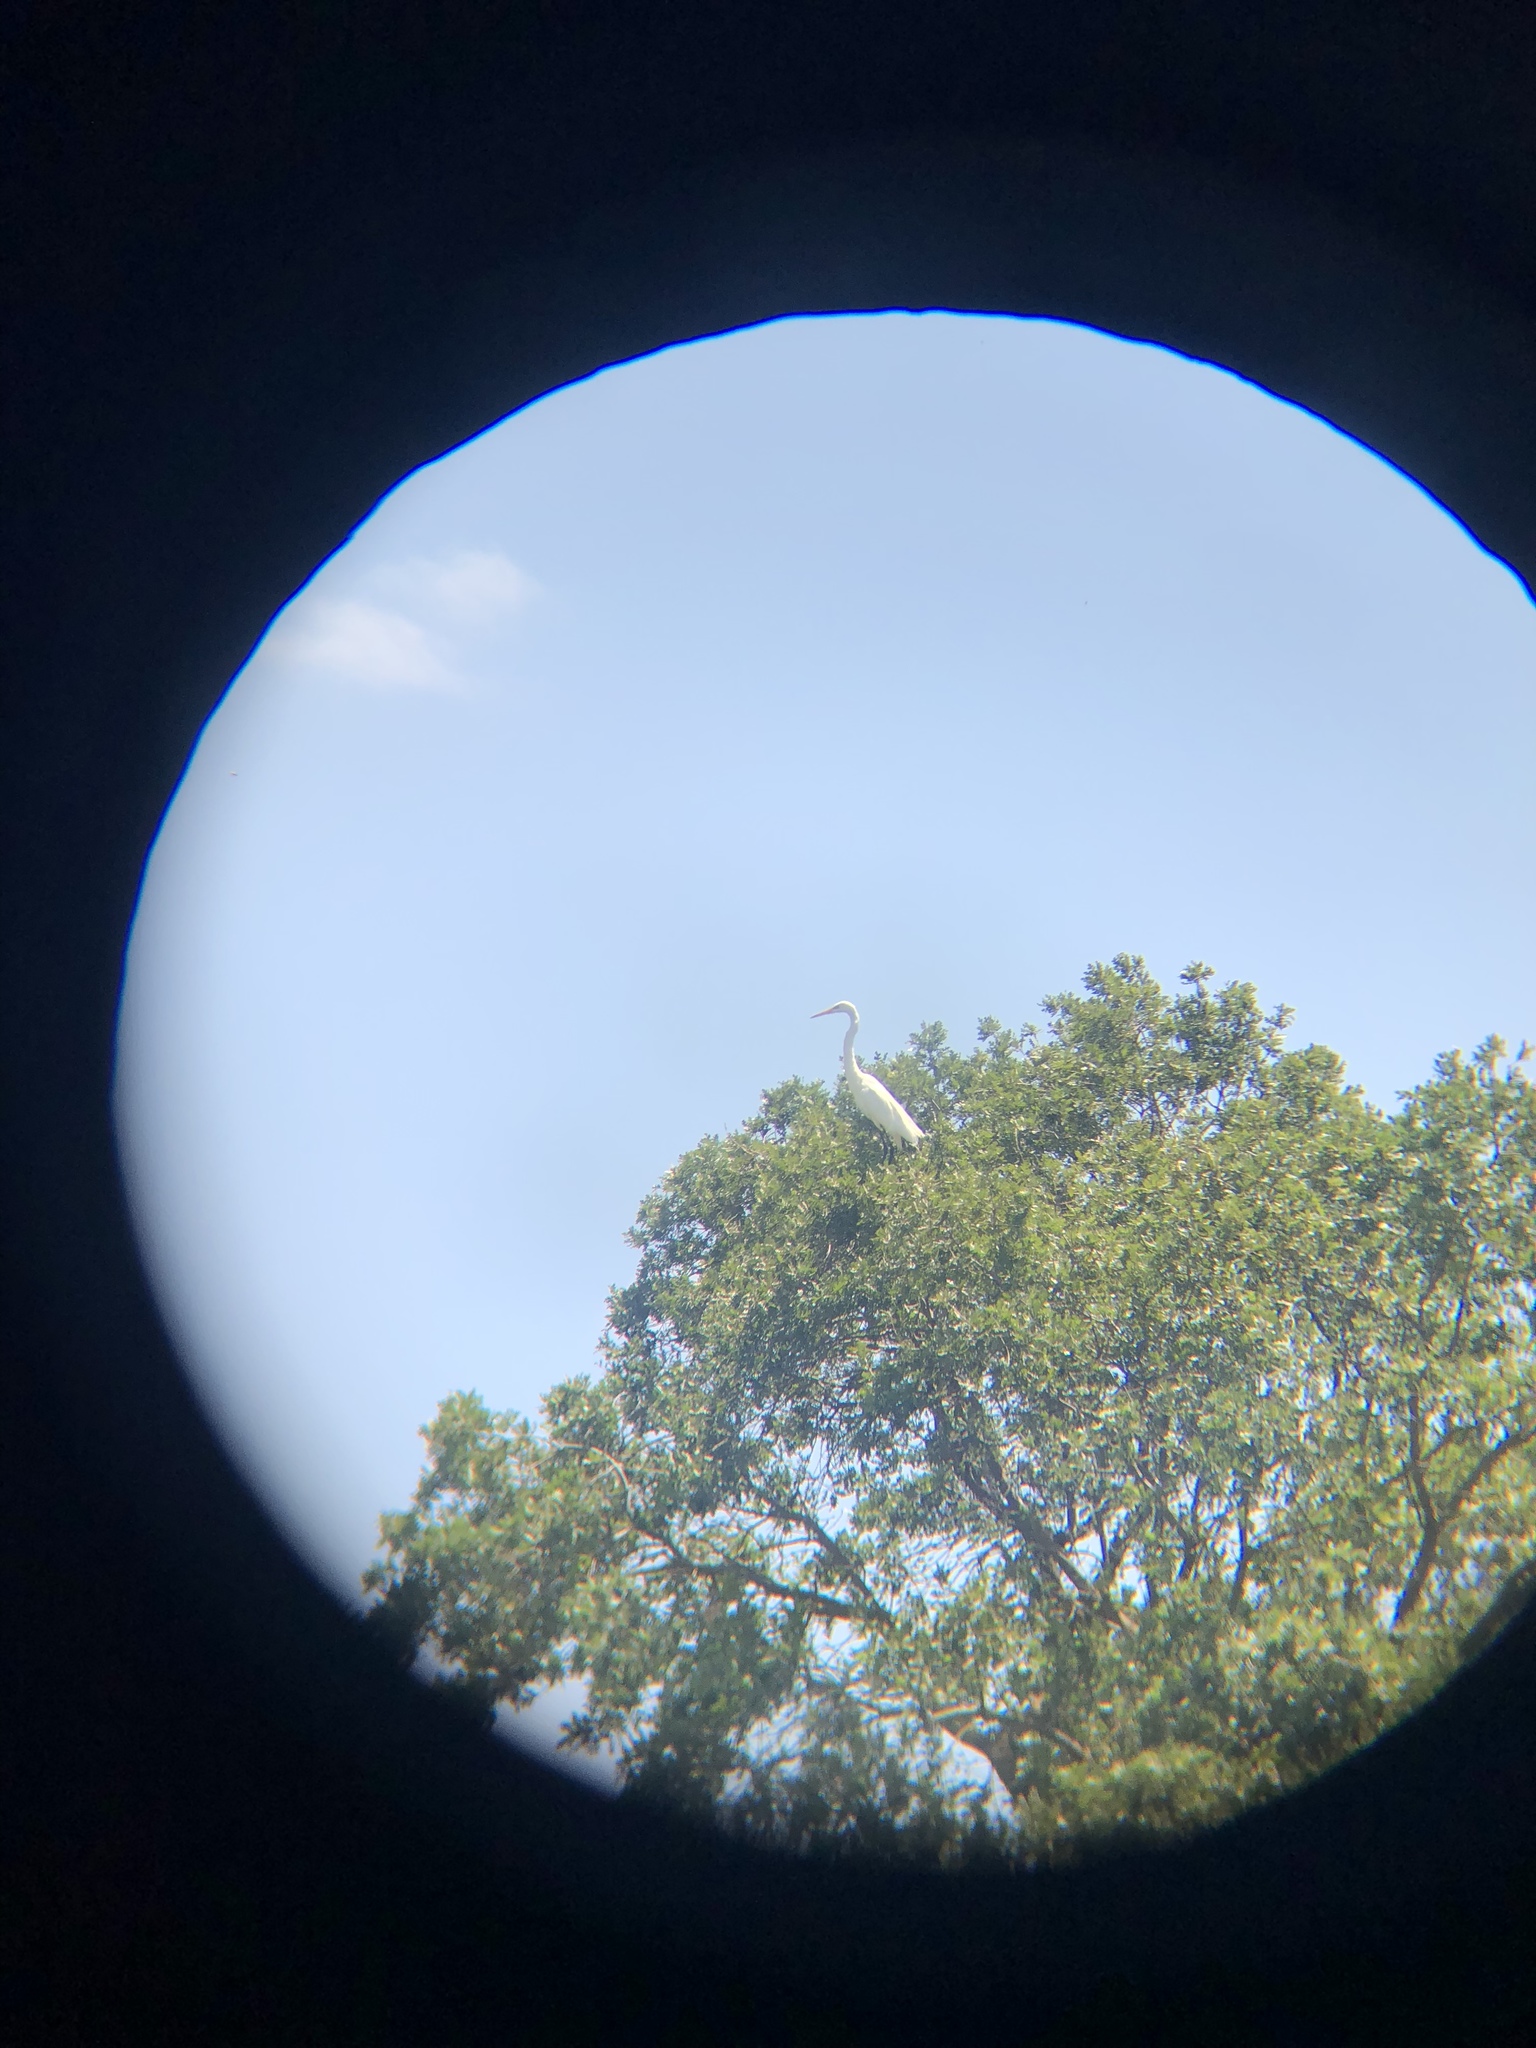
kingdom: Animalia
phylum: Chordata
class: Aves
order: Pelecaniformes
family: Ardeidae
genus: Ardea
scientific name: Ardea alba
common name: Great egret
